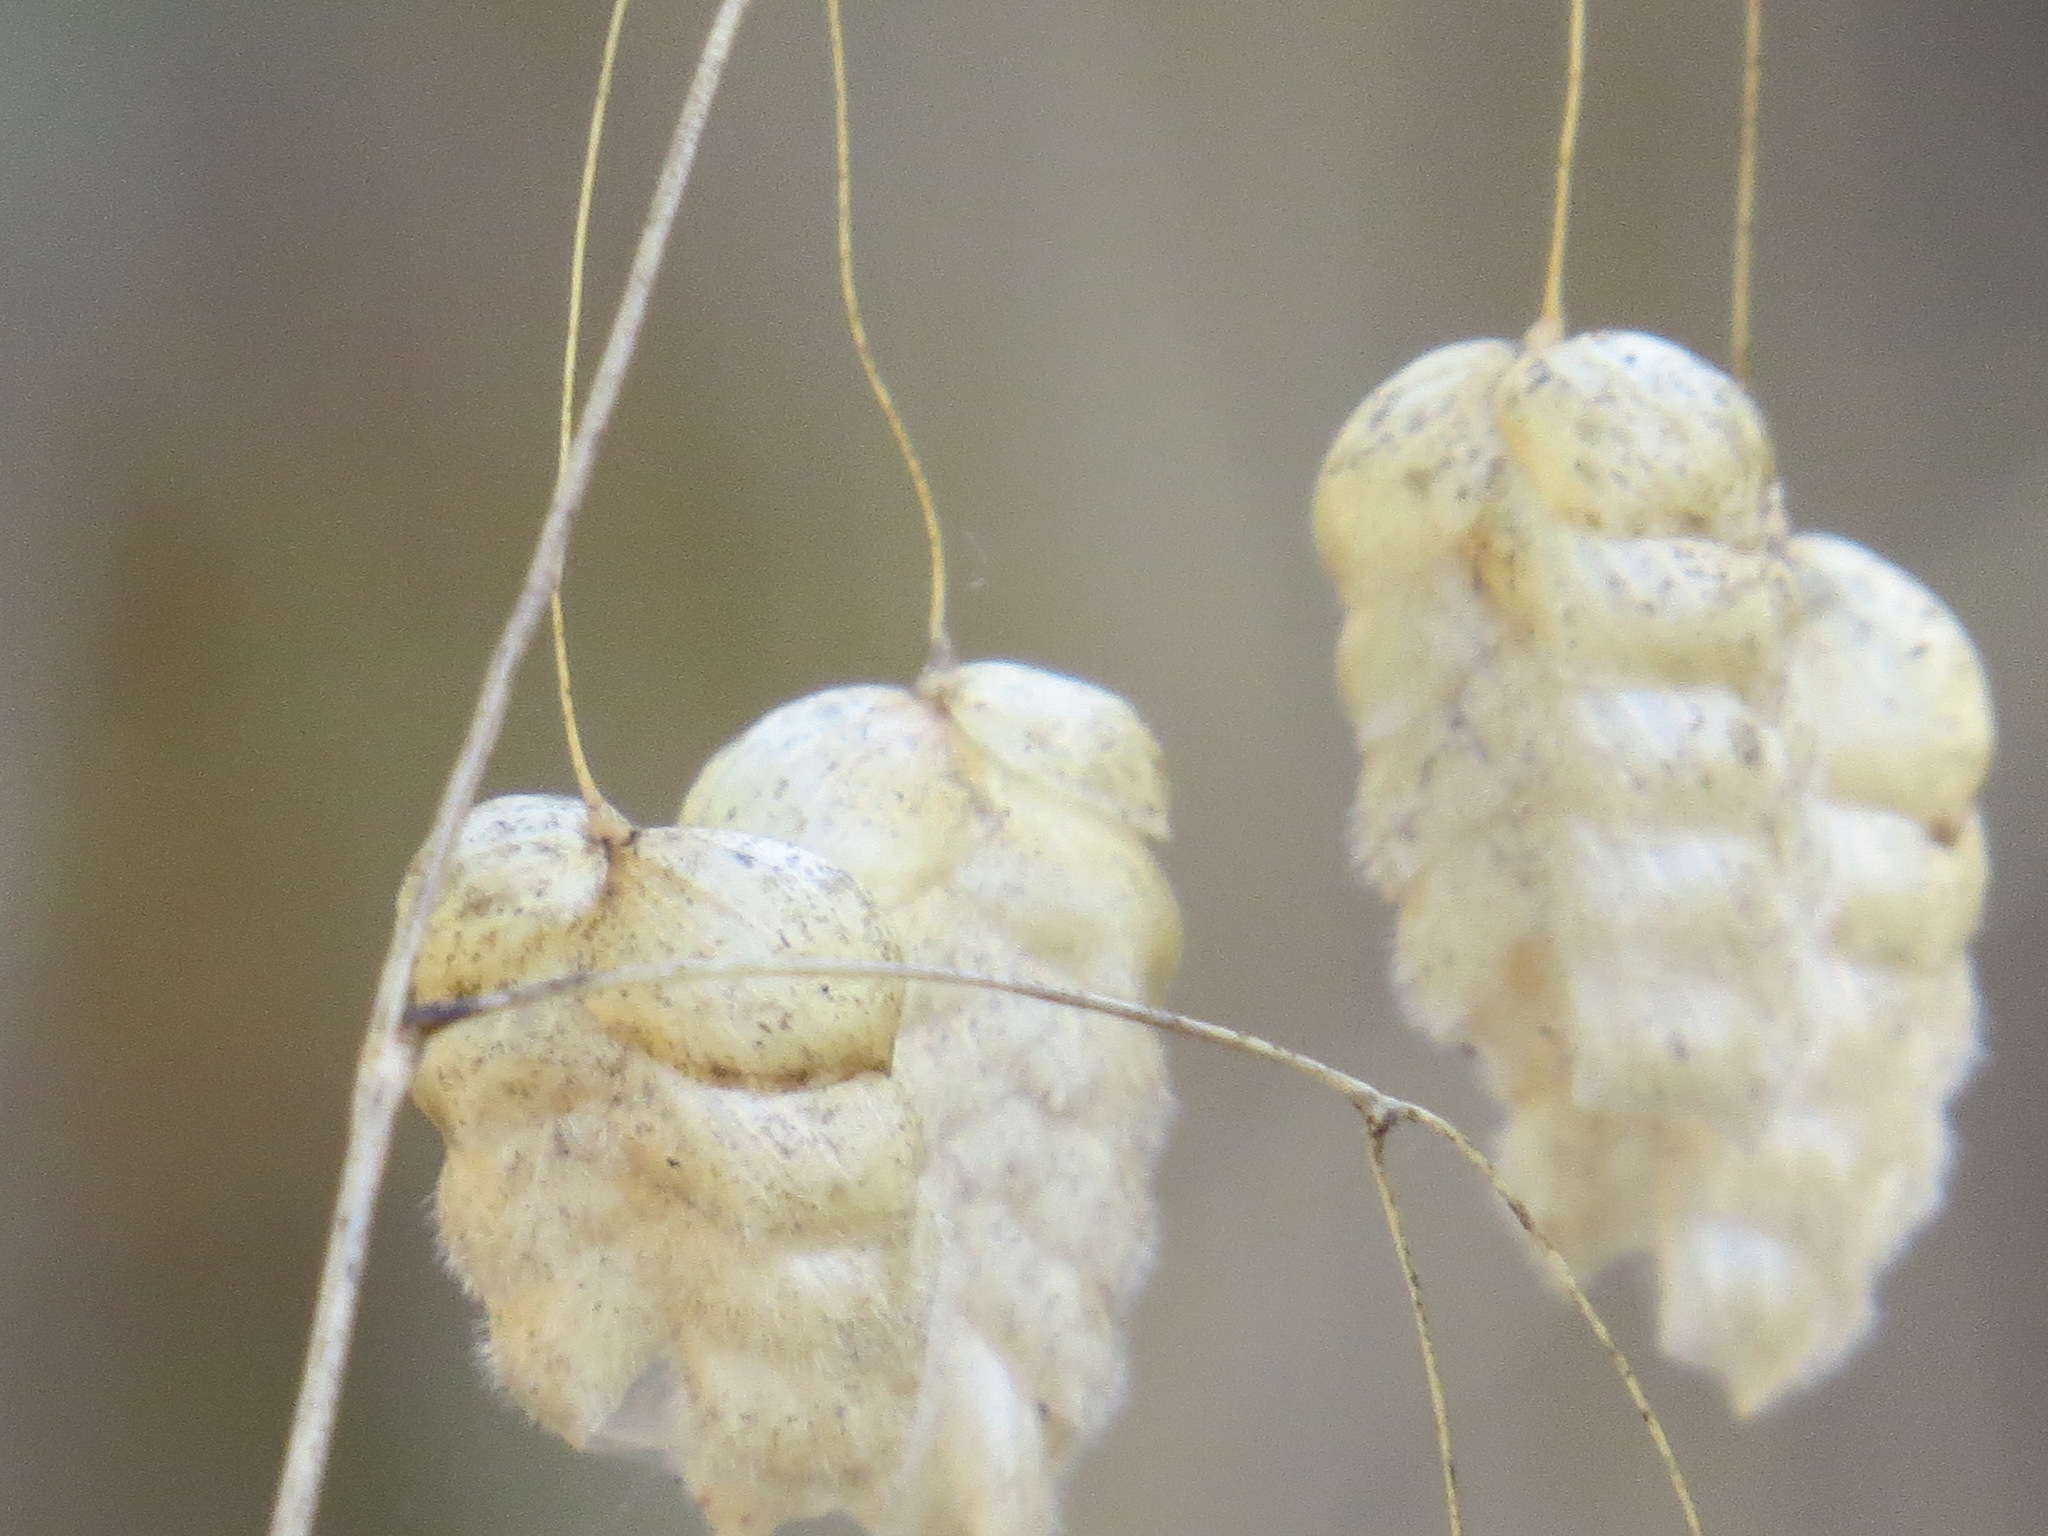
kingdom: Plantae
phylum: Tracheophyta
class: Liliopsida
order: Poales
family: Poaceae
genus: Briza
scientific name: Briza maxima
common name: Big quakinggrass
